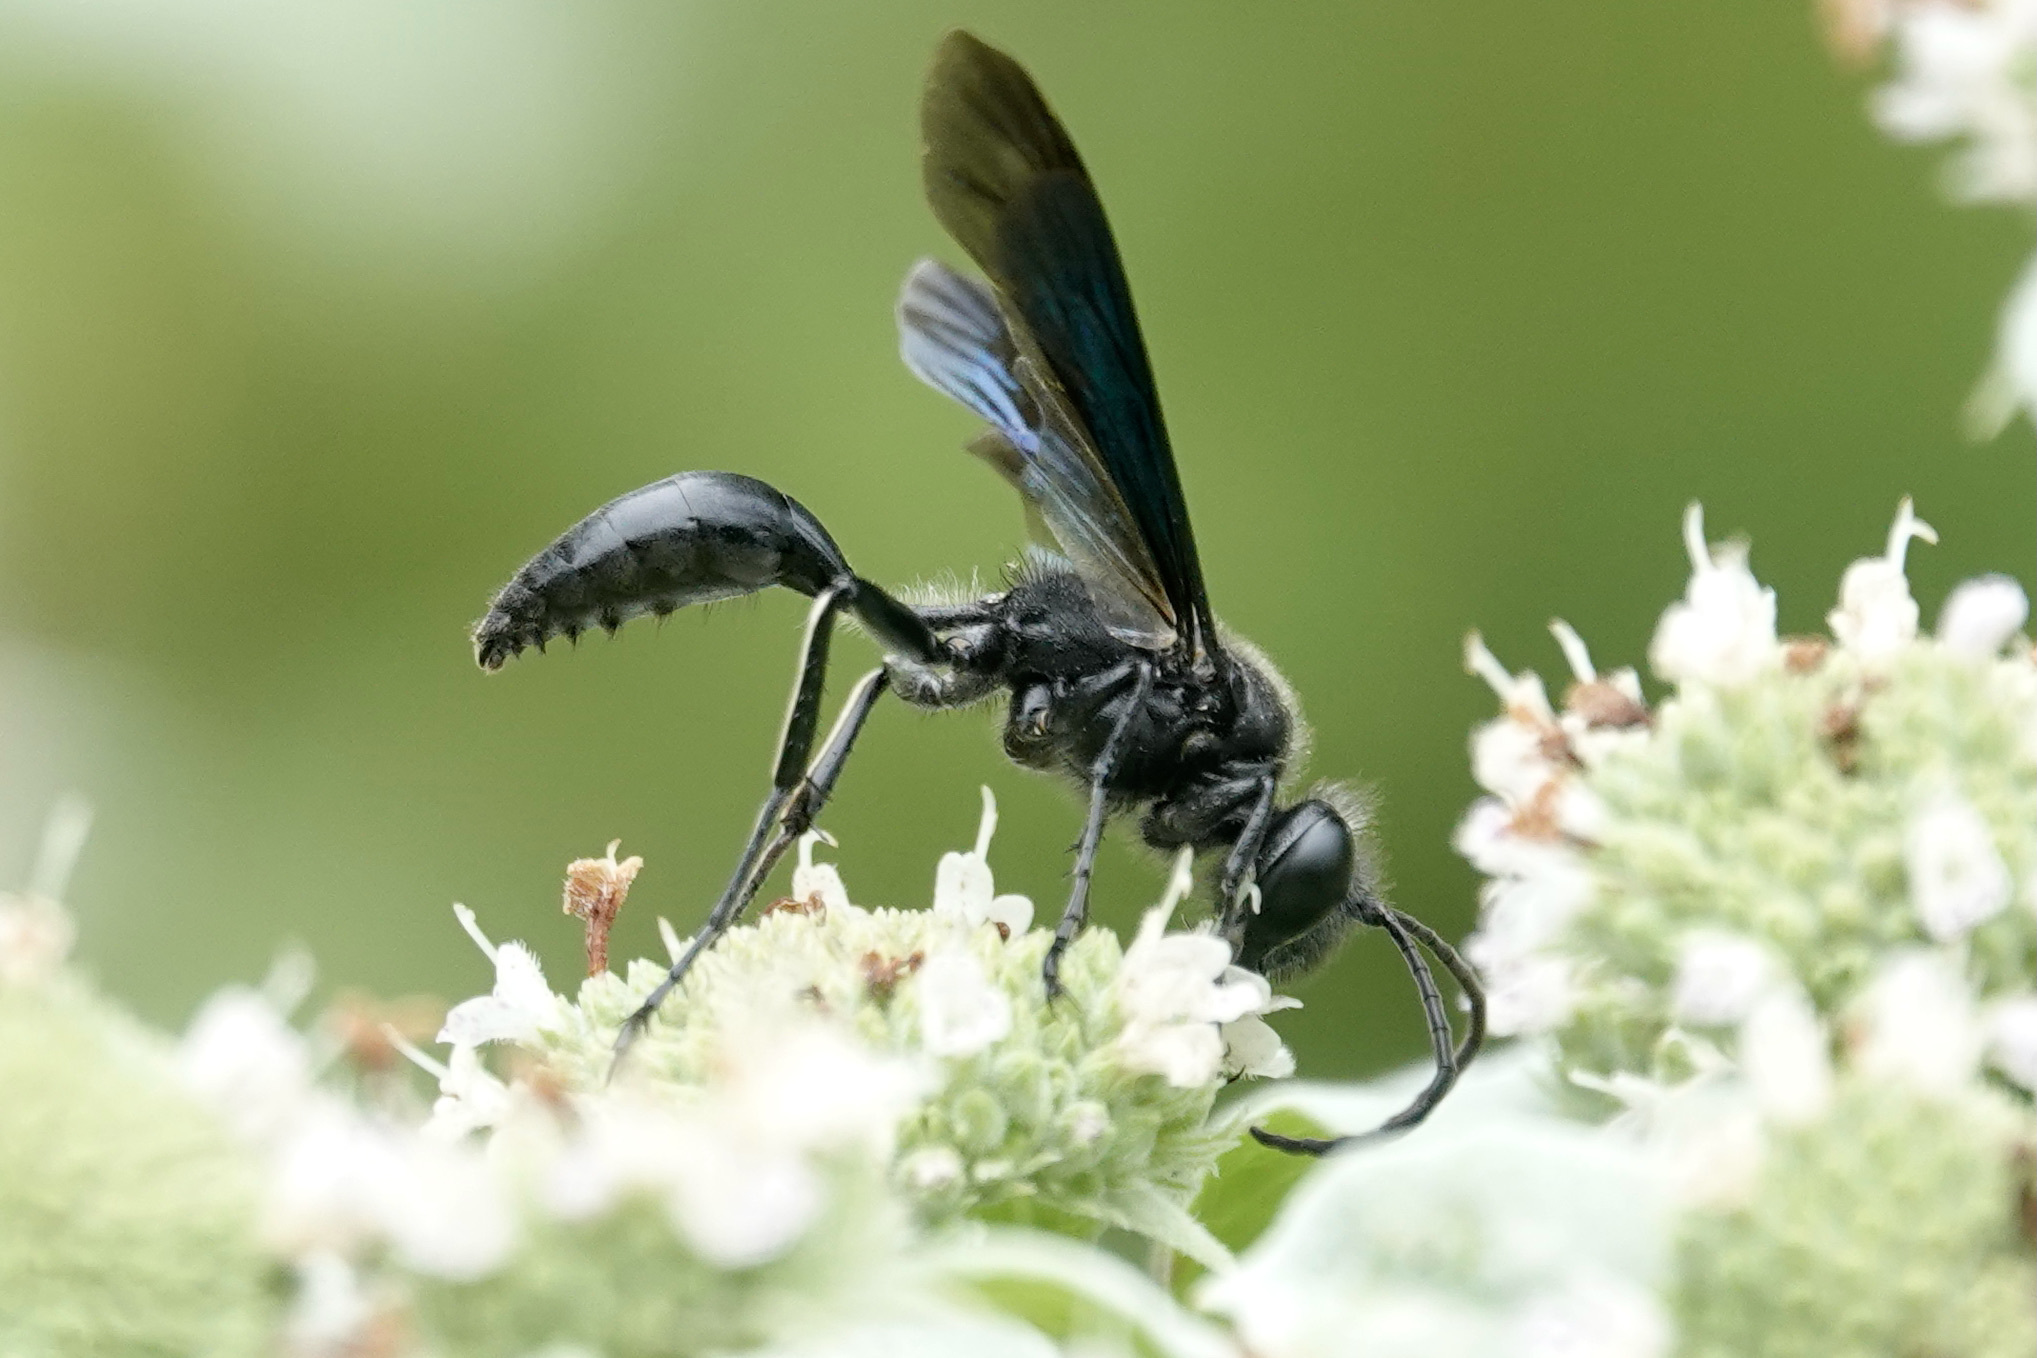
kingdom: Animalia
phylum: Arthropoda
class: Insecta
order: Hymenoptera
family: Sphecidae
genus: Isodontia
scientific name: Isodontia philadelphica
